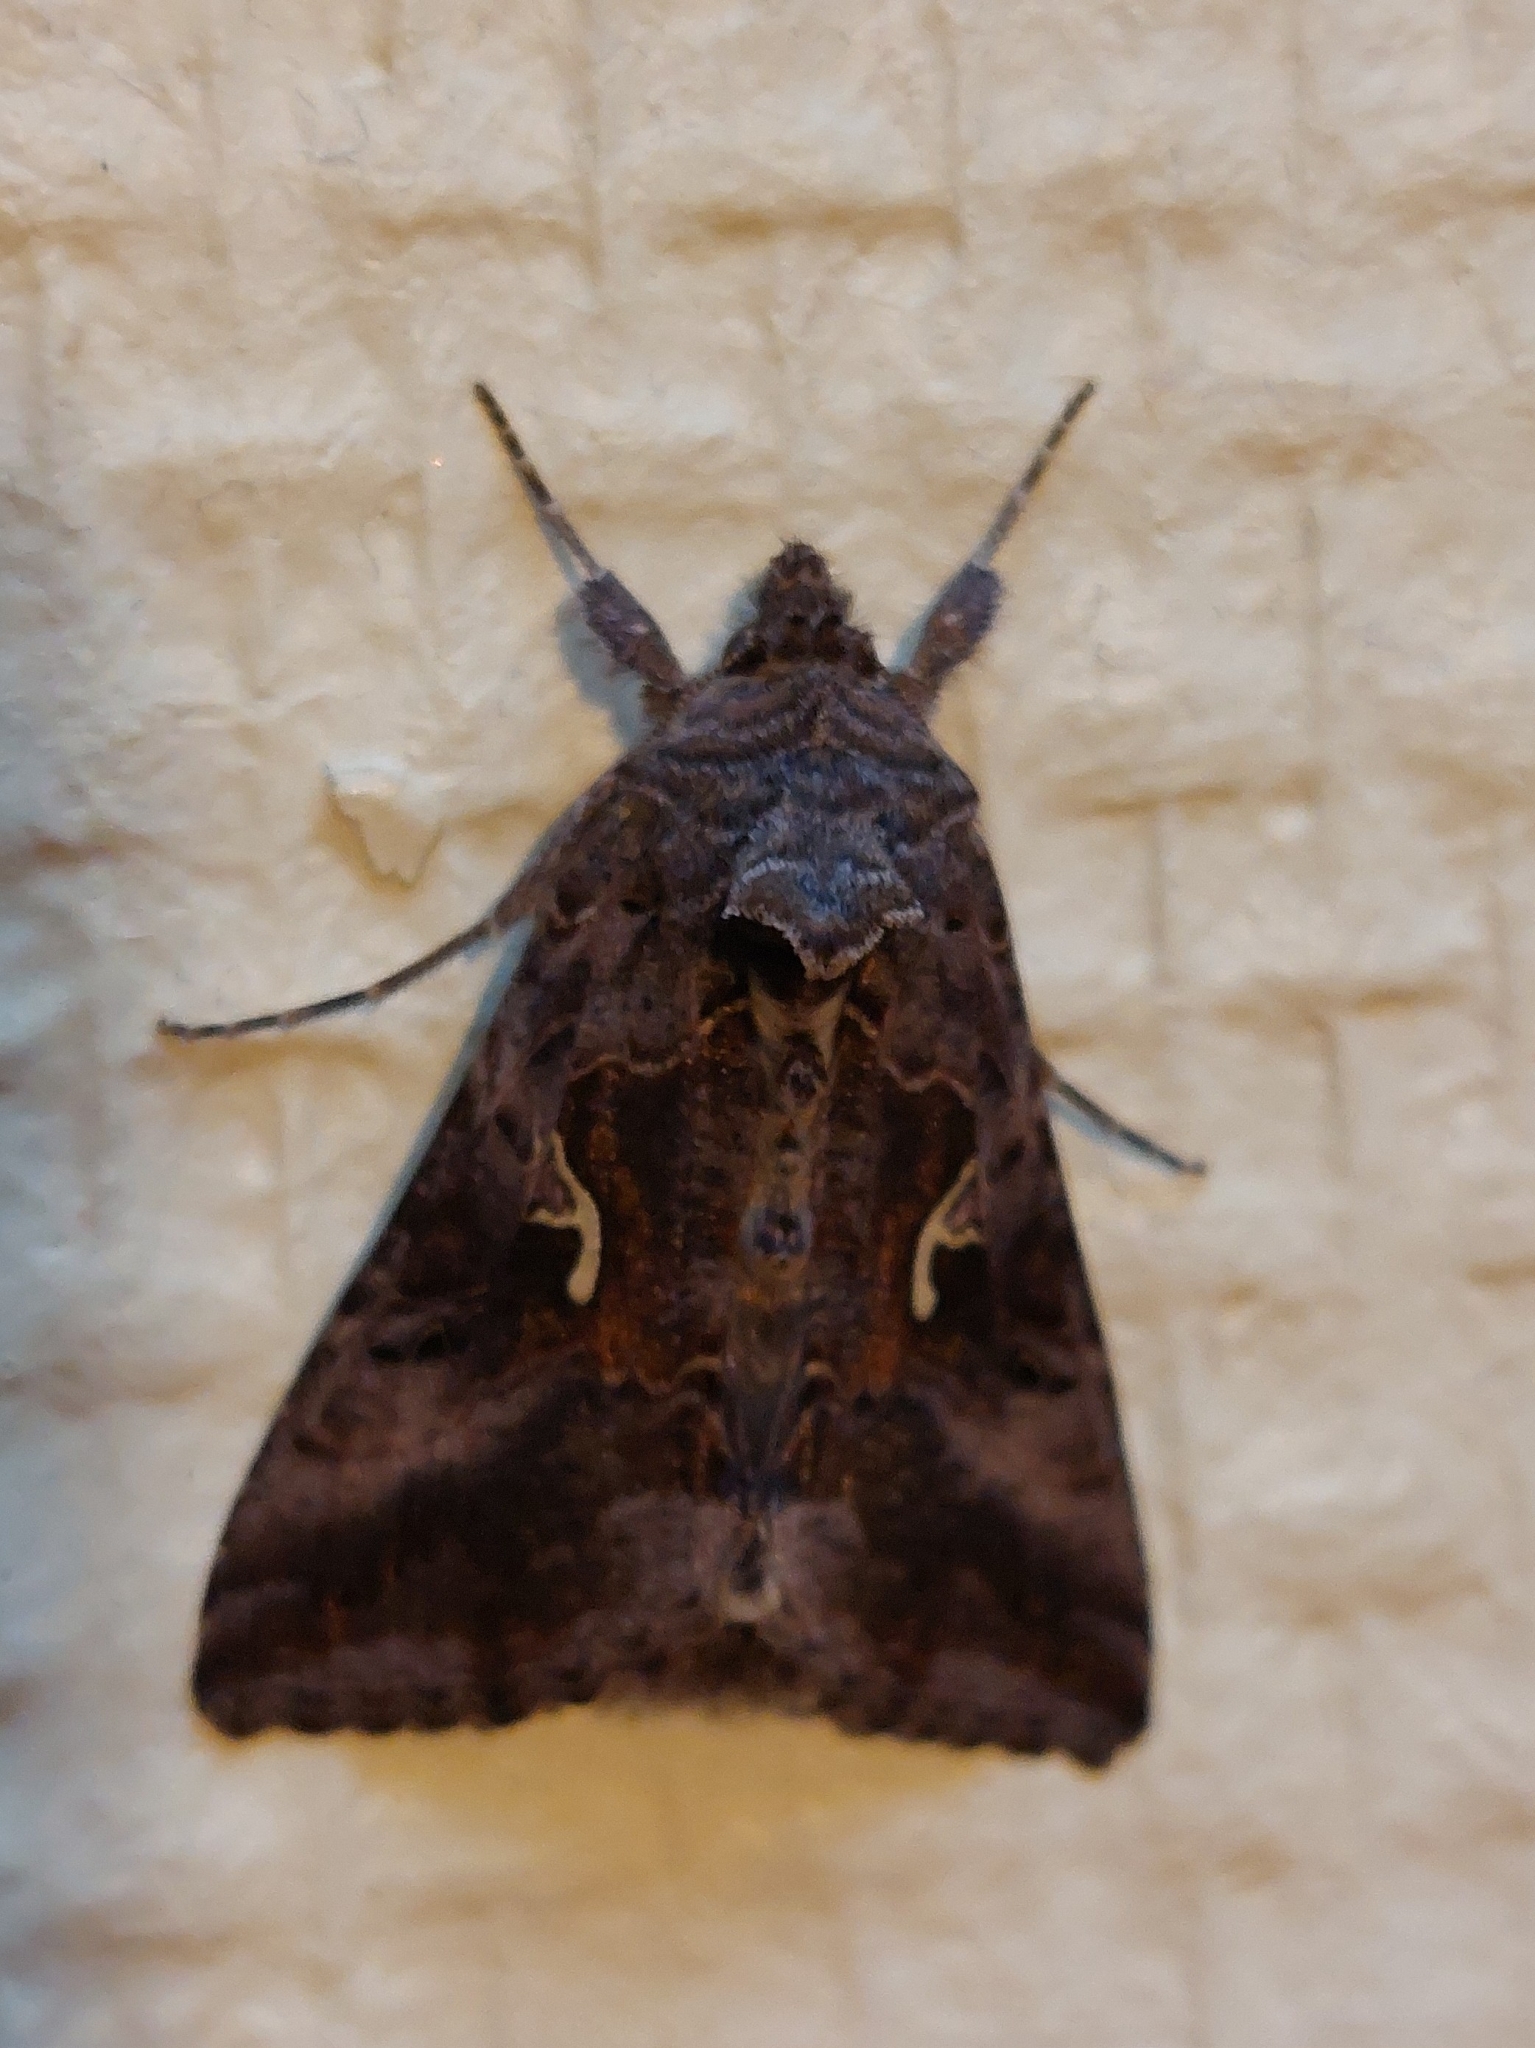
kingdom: Animalia
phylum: Arthropoda
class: Insecta
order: Lepidoptera
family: Noctuidae
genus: Autographa
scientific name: Autographa gamma
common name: Silver y
